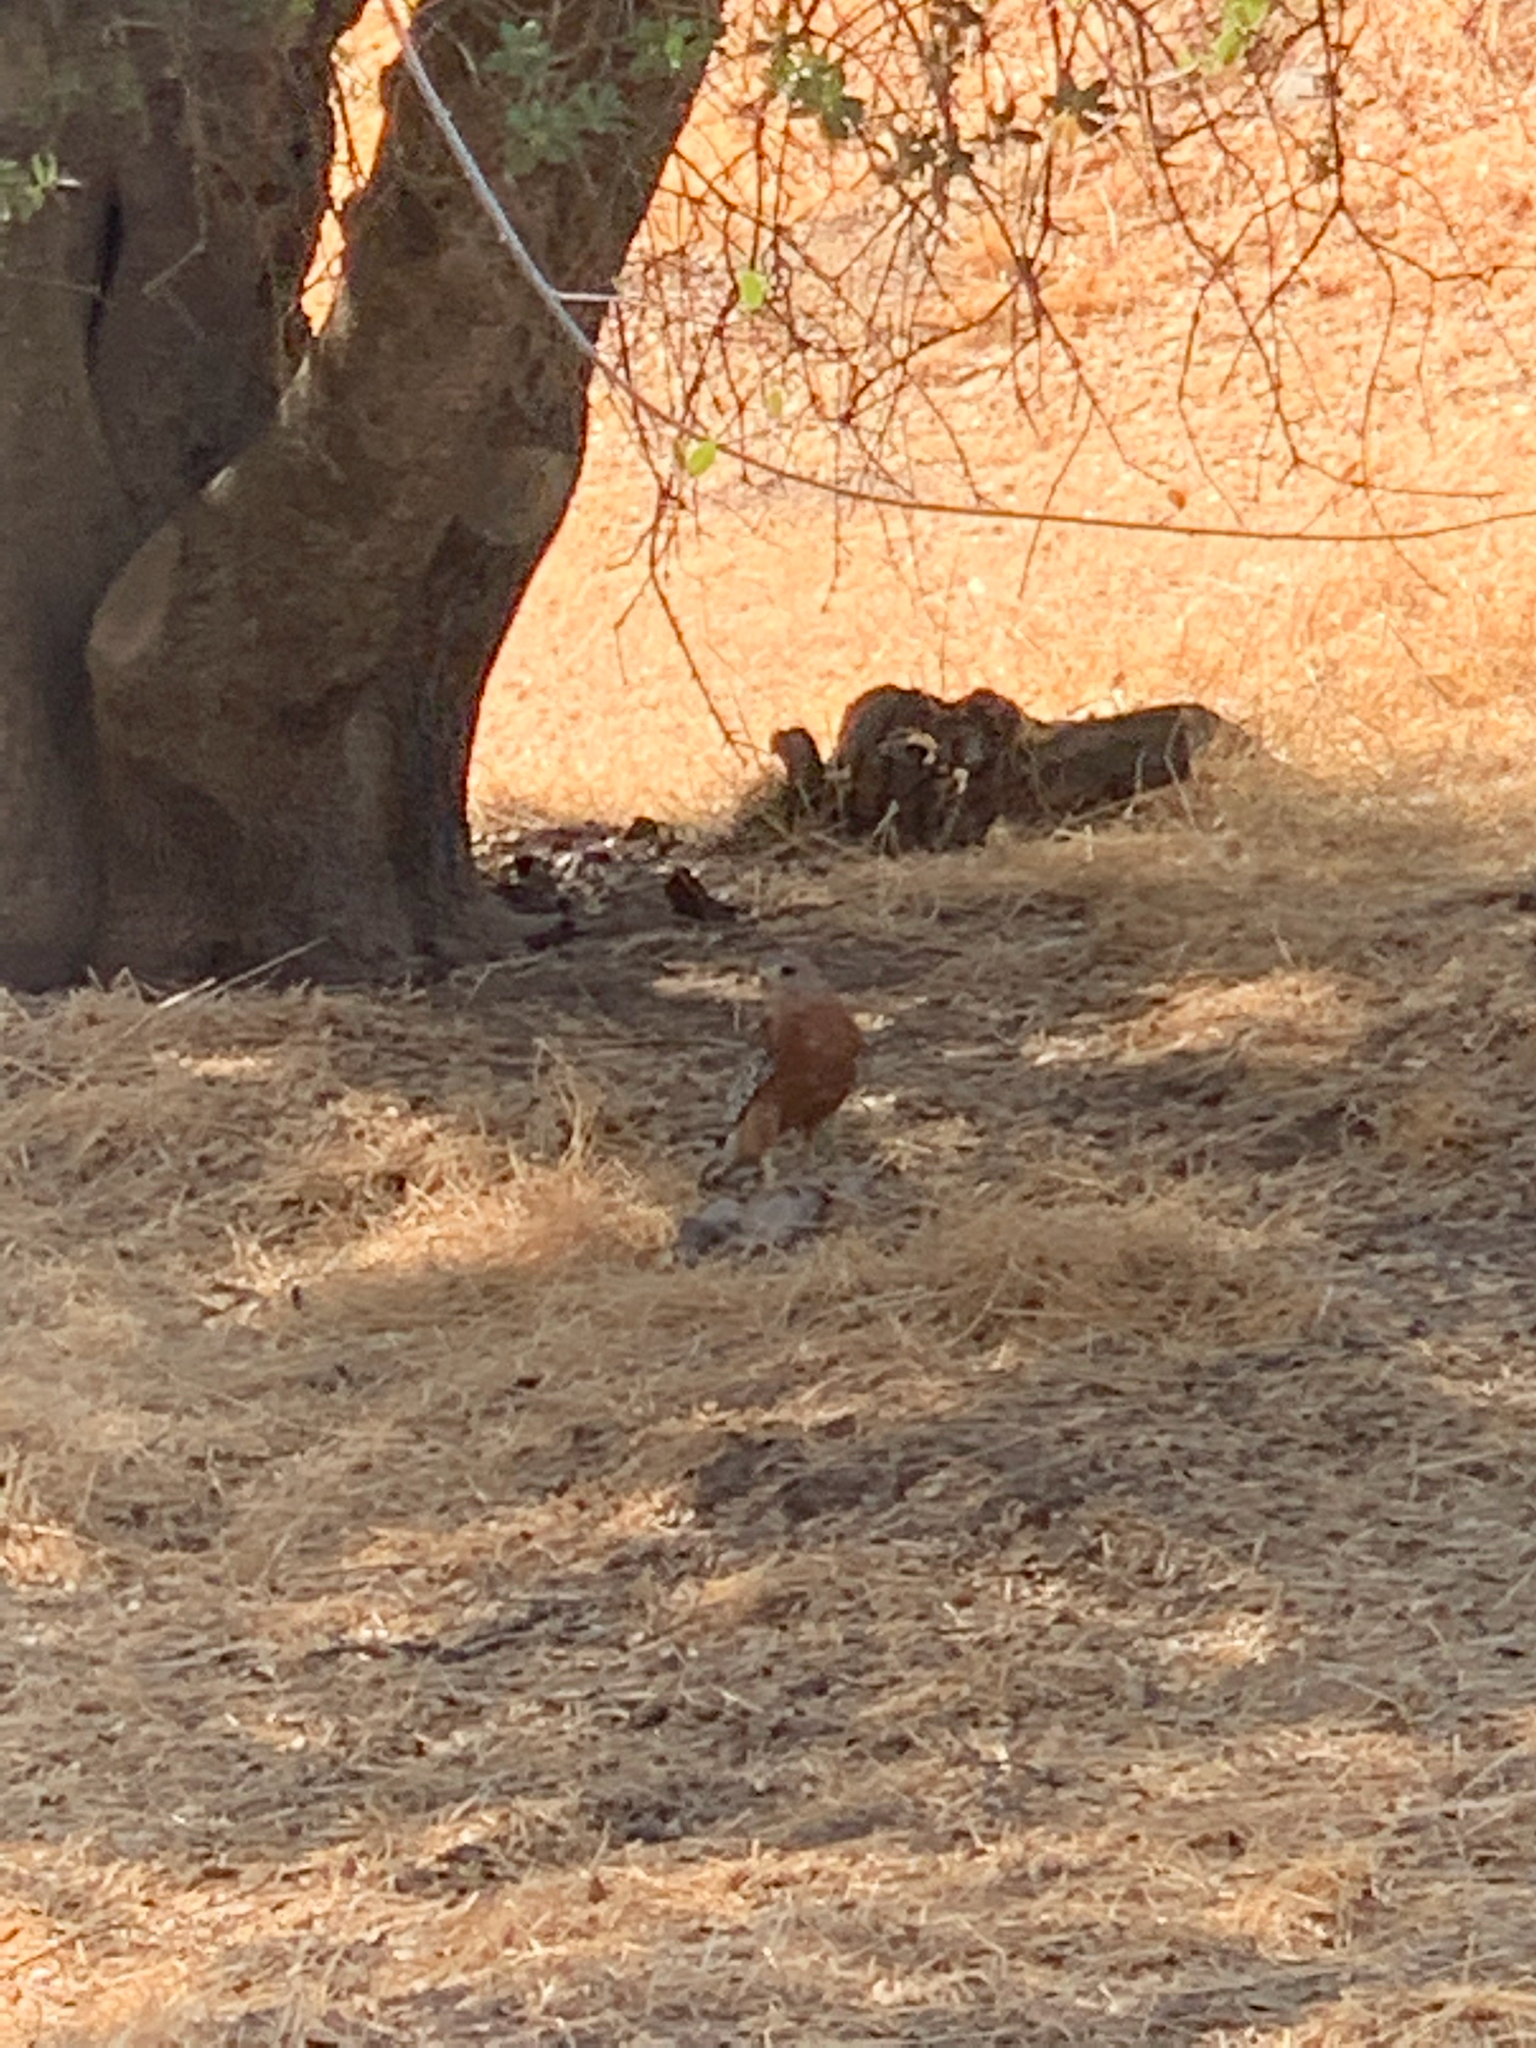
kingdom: Animalia
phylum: Chordata
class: Aves
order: Accipitriformes
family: Accipitridae
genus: Buteo
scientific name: Buteo lineatus
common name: Red-shouldered hawk
